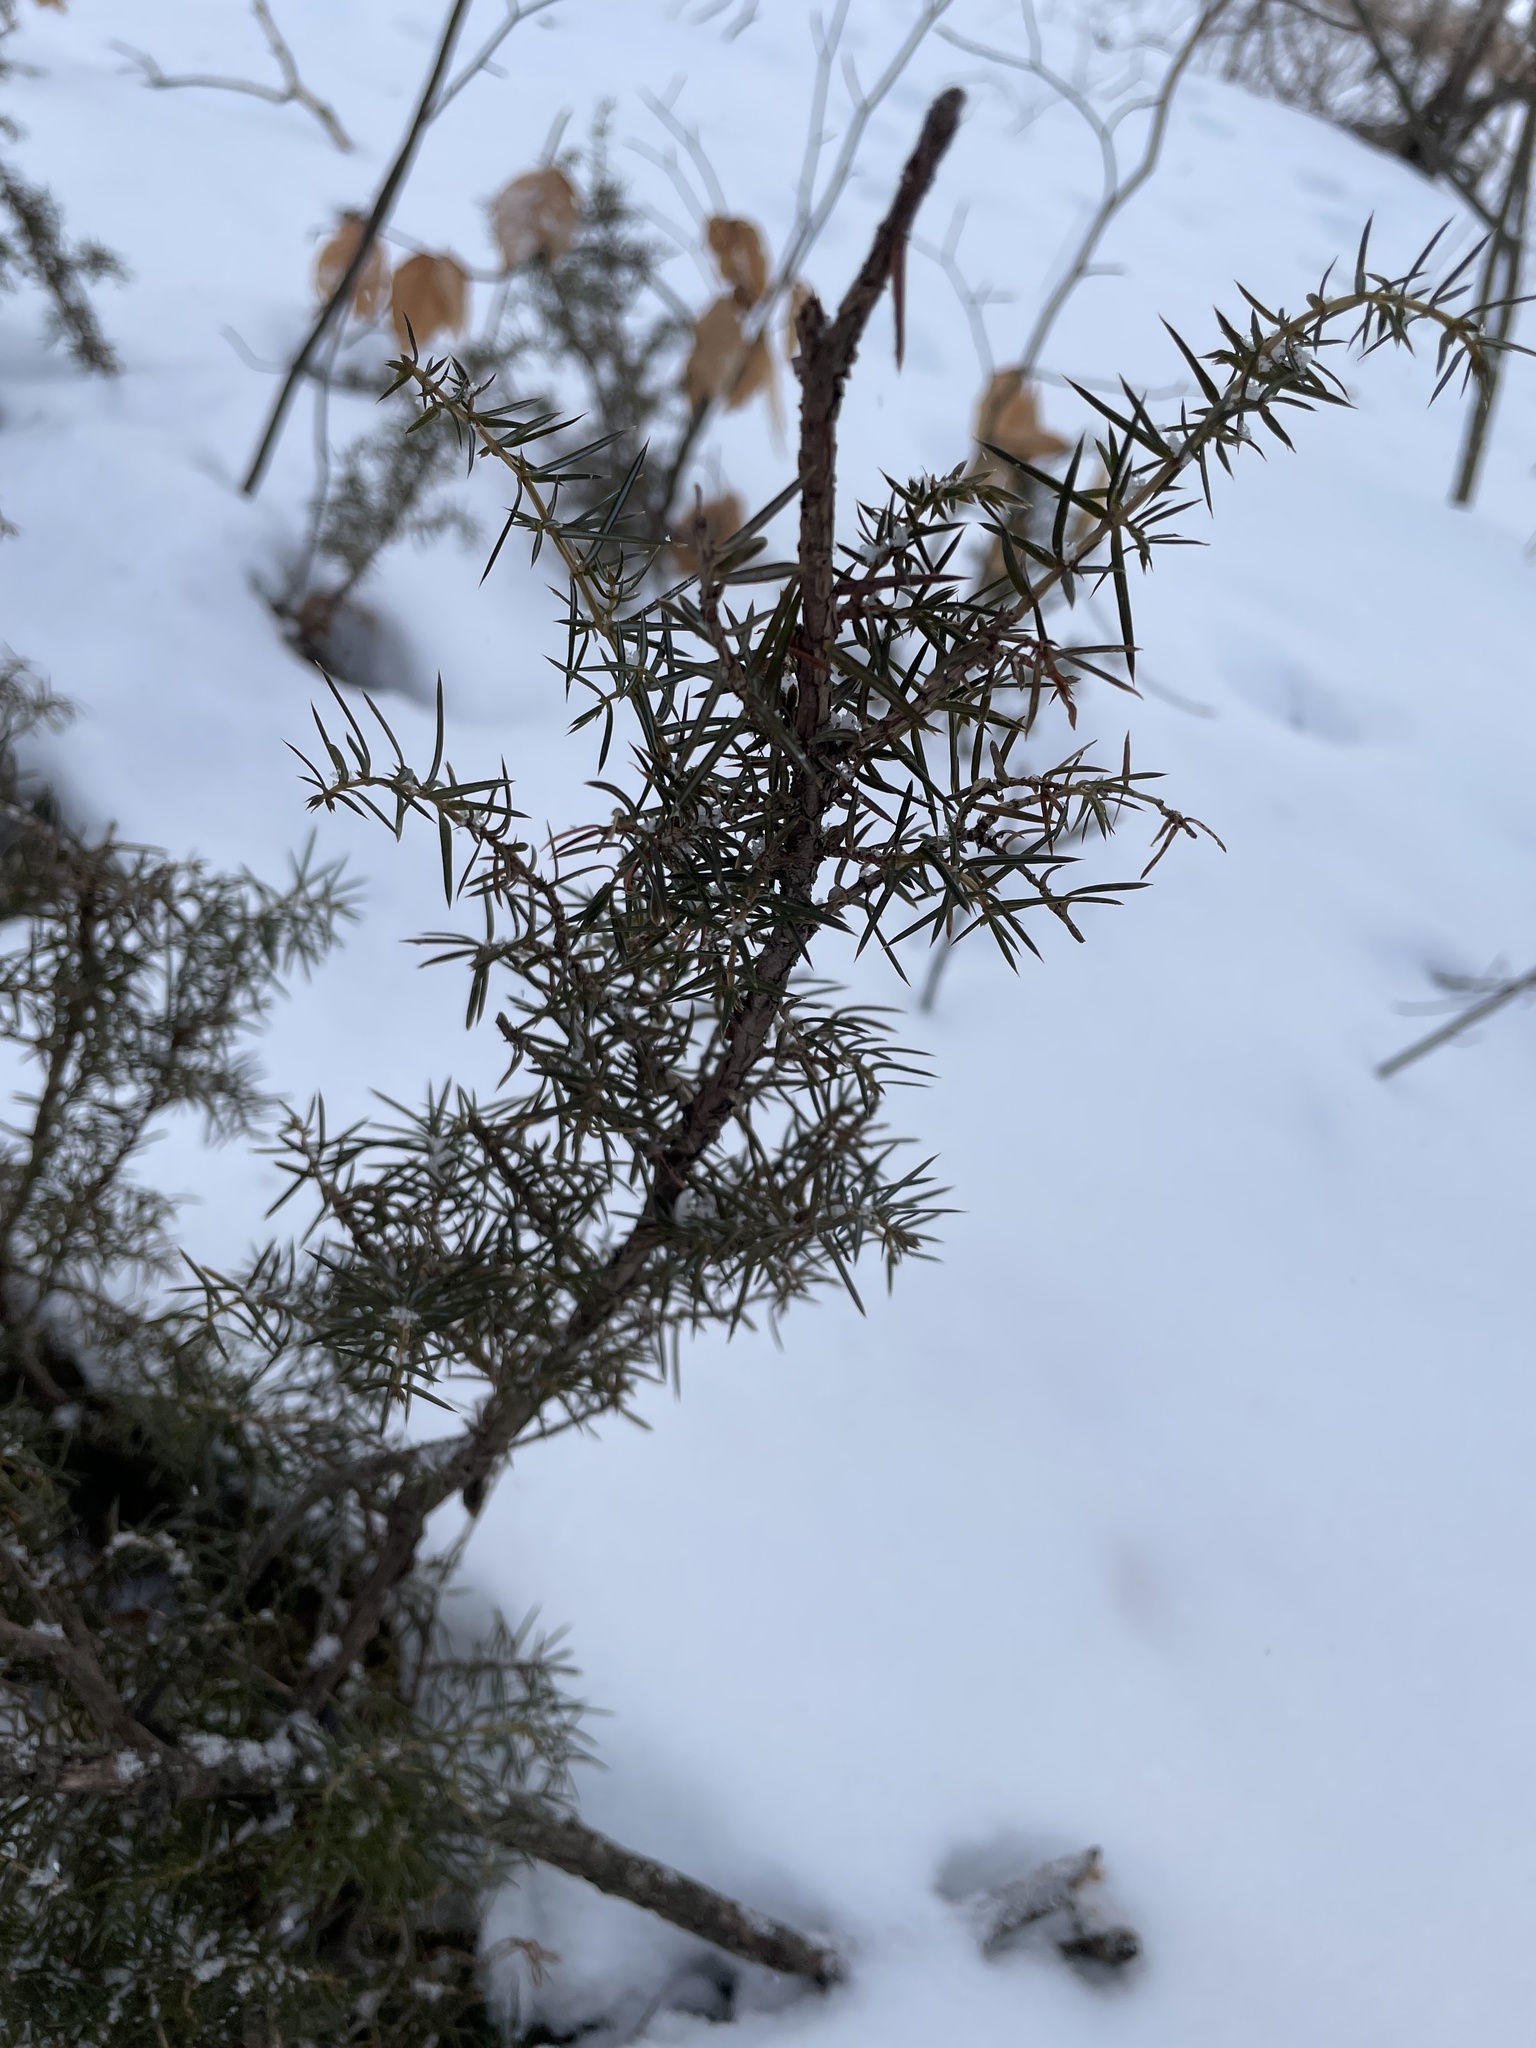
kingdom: Plantae
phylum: Tracheophyta
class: Pinopsida
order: Pinales
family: Cupressaceae
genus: Juniperus
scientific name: Juniperus communis
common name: Common juniper
